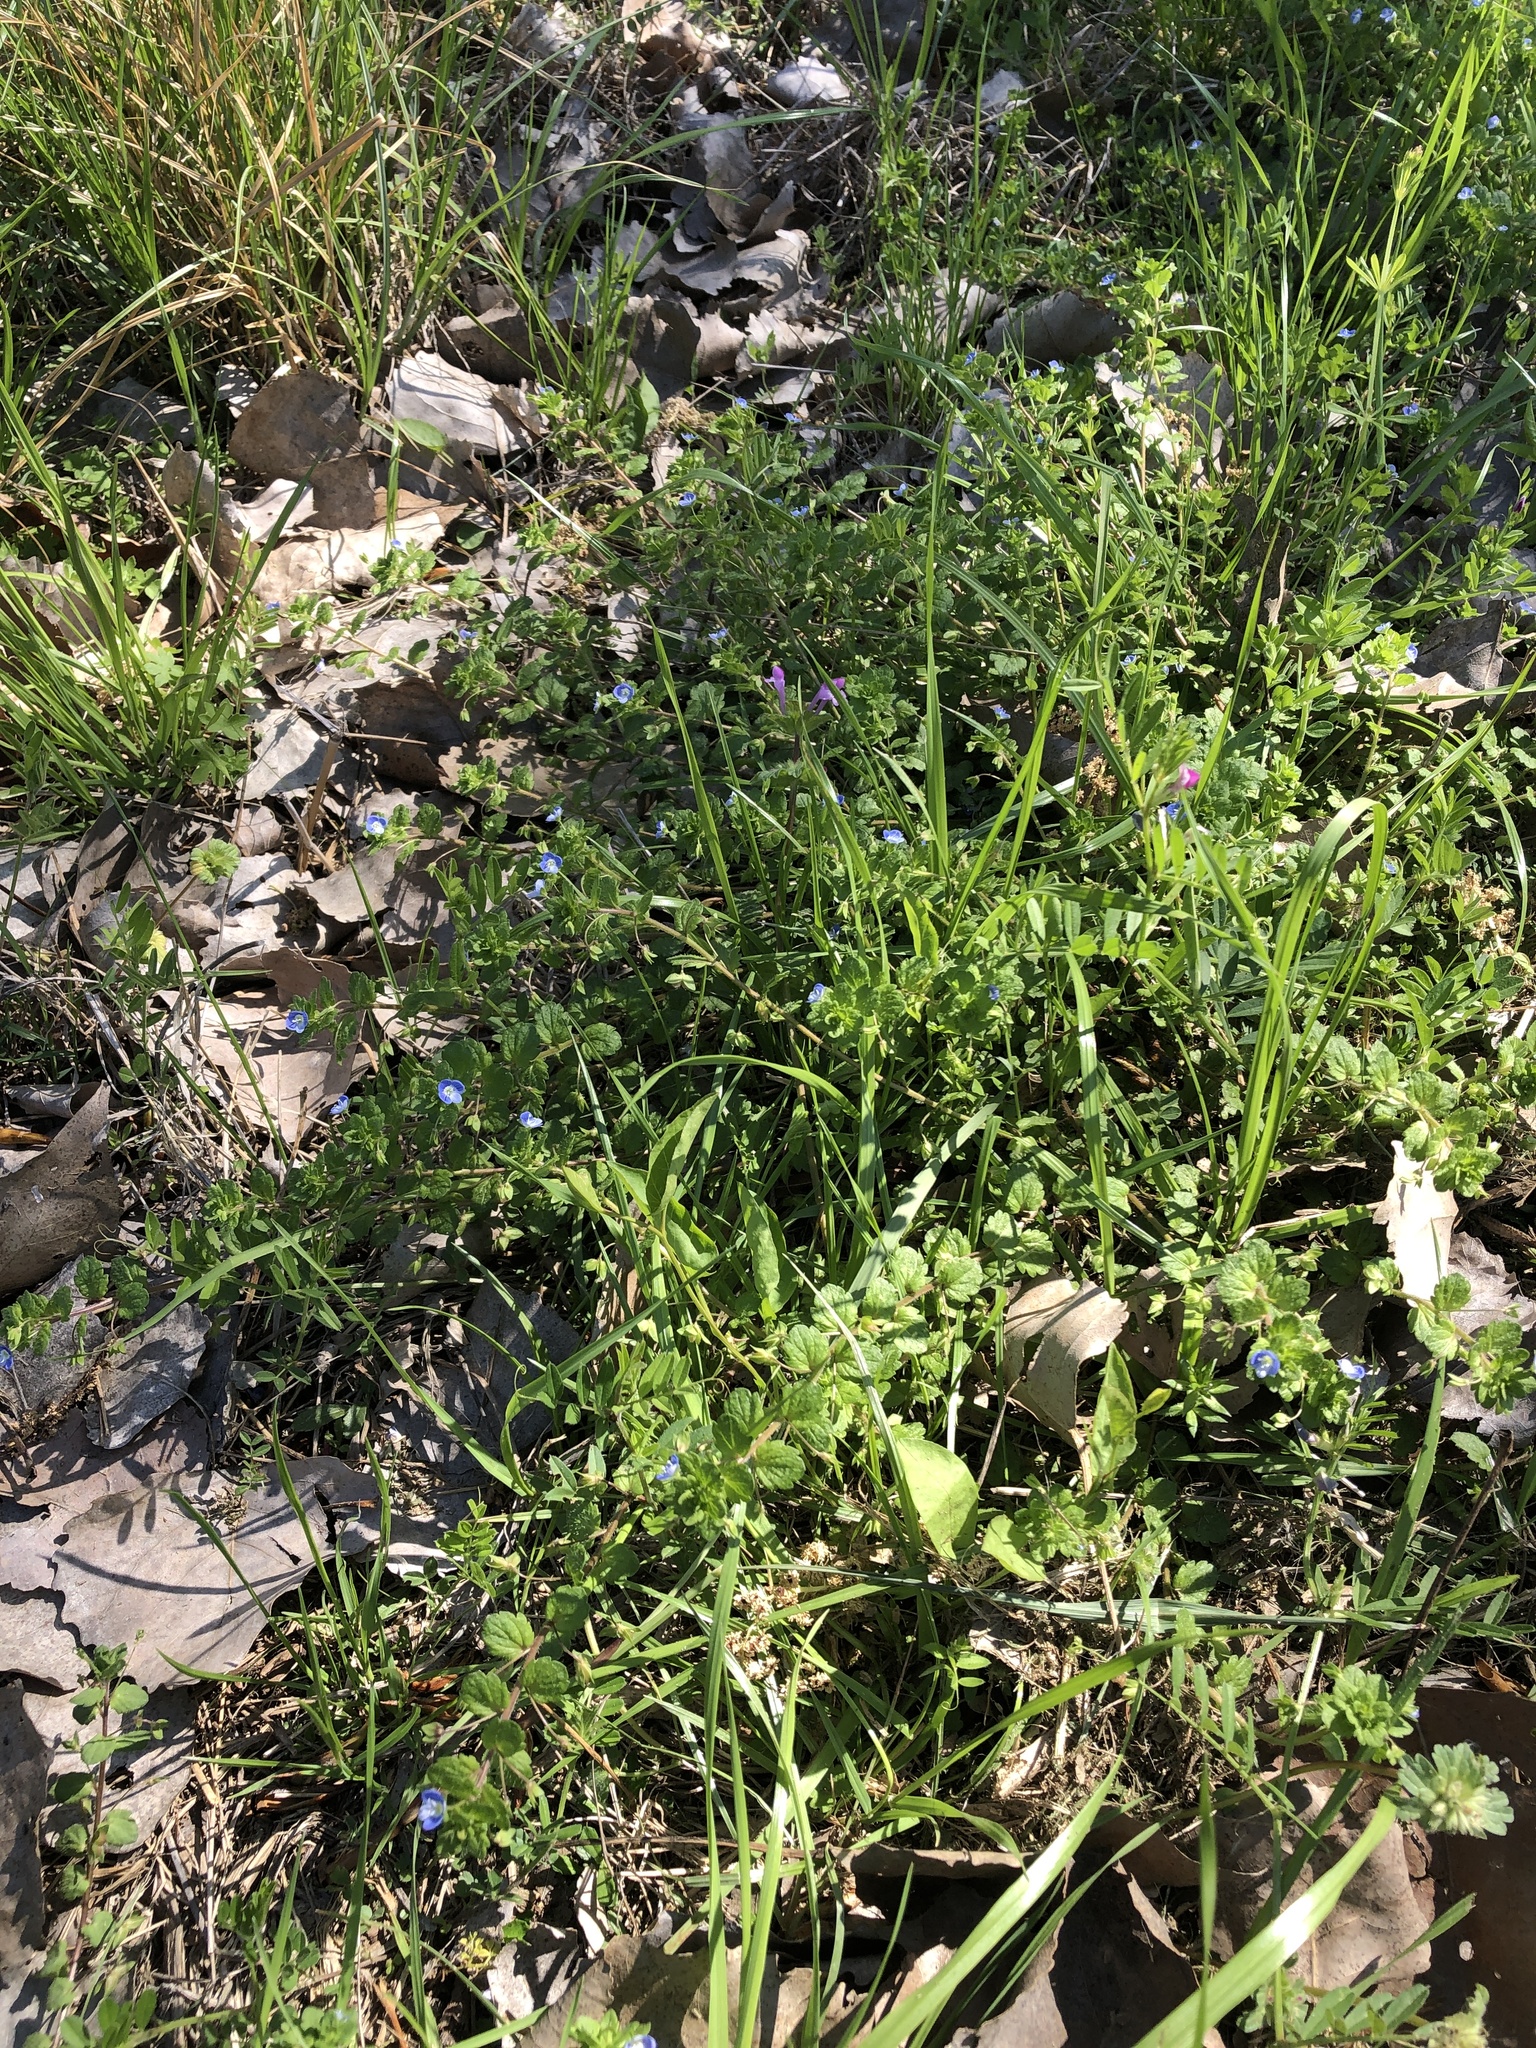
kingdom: Plantae
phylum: Tracheophyta
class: Magnoliopsida
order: Lamiales
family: Plantaginaceae
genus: Veronica
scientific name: Veronica persica
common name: Common field-speedwell
